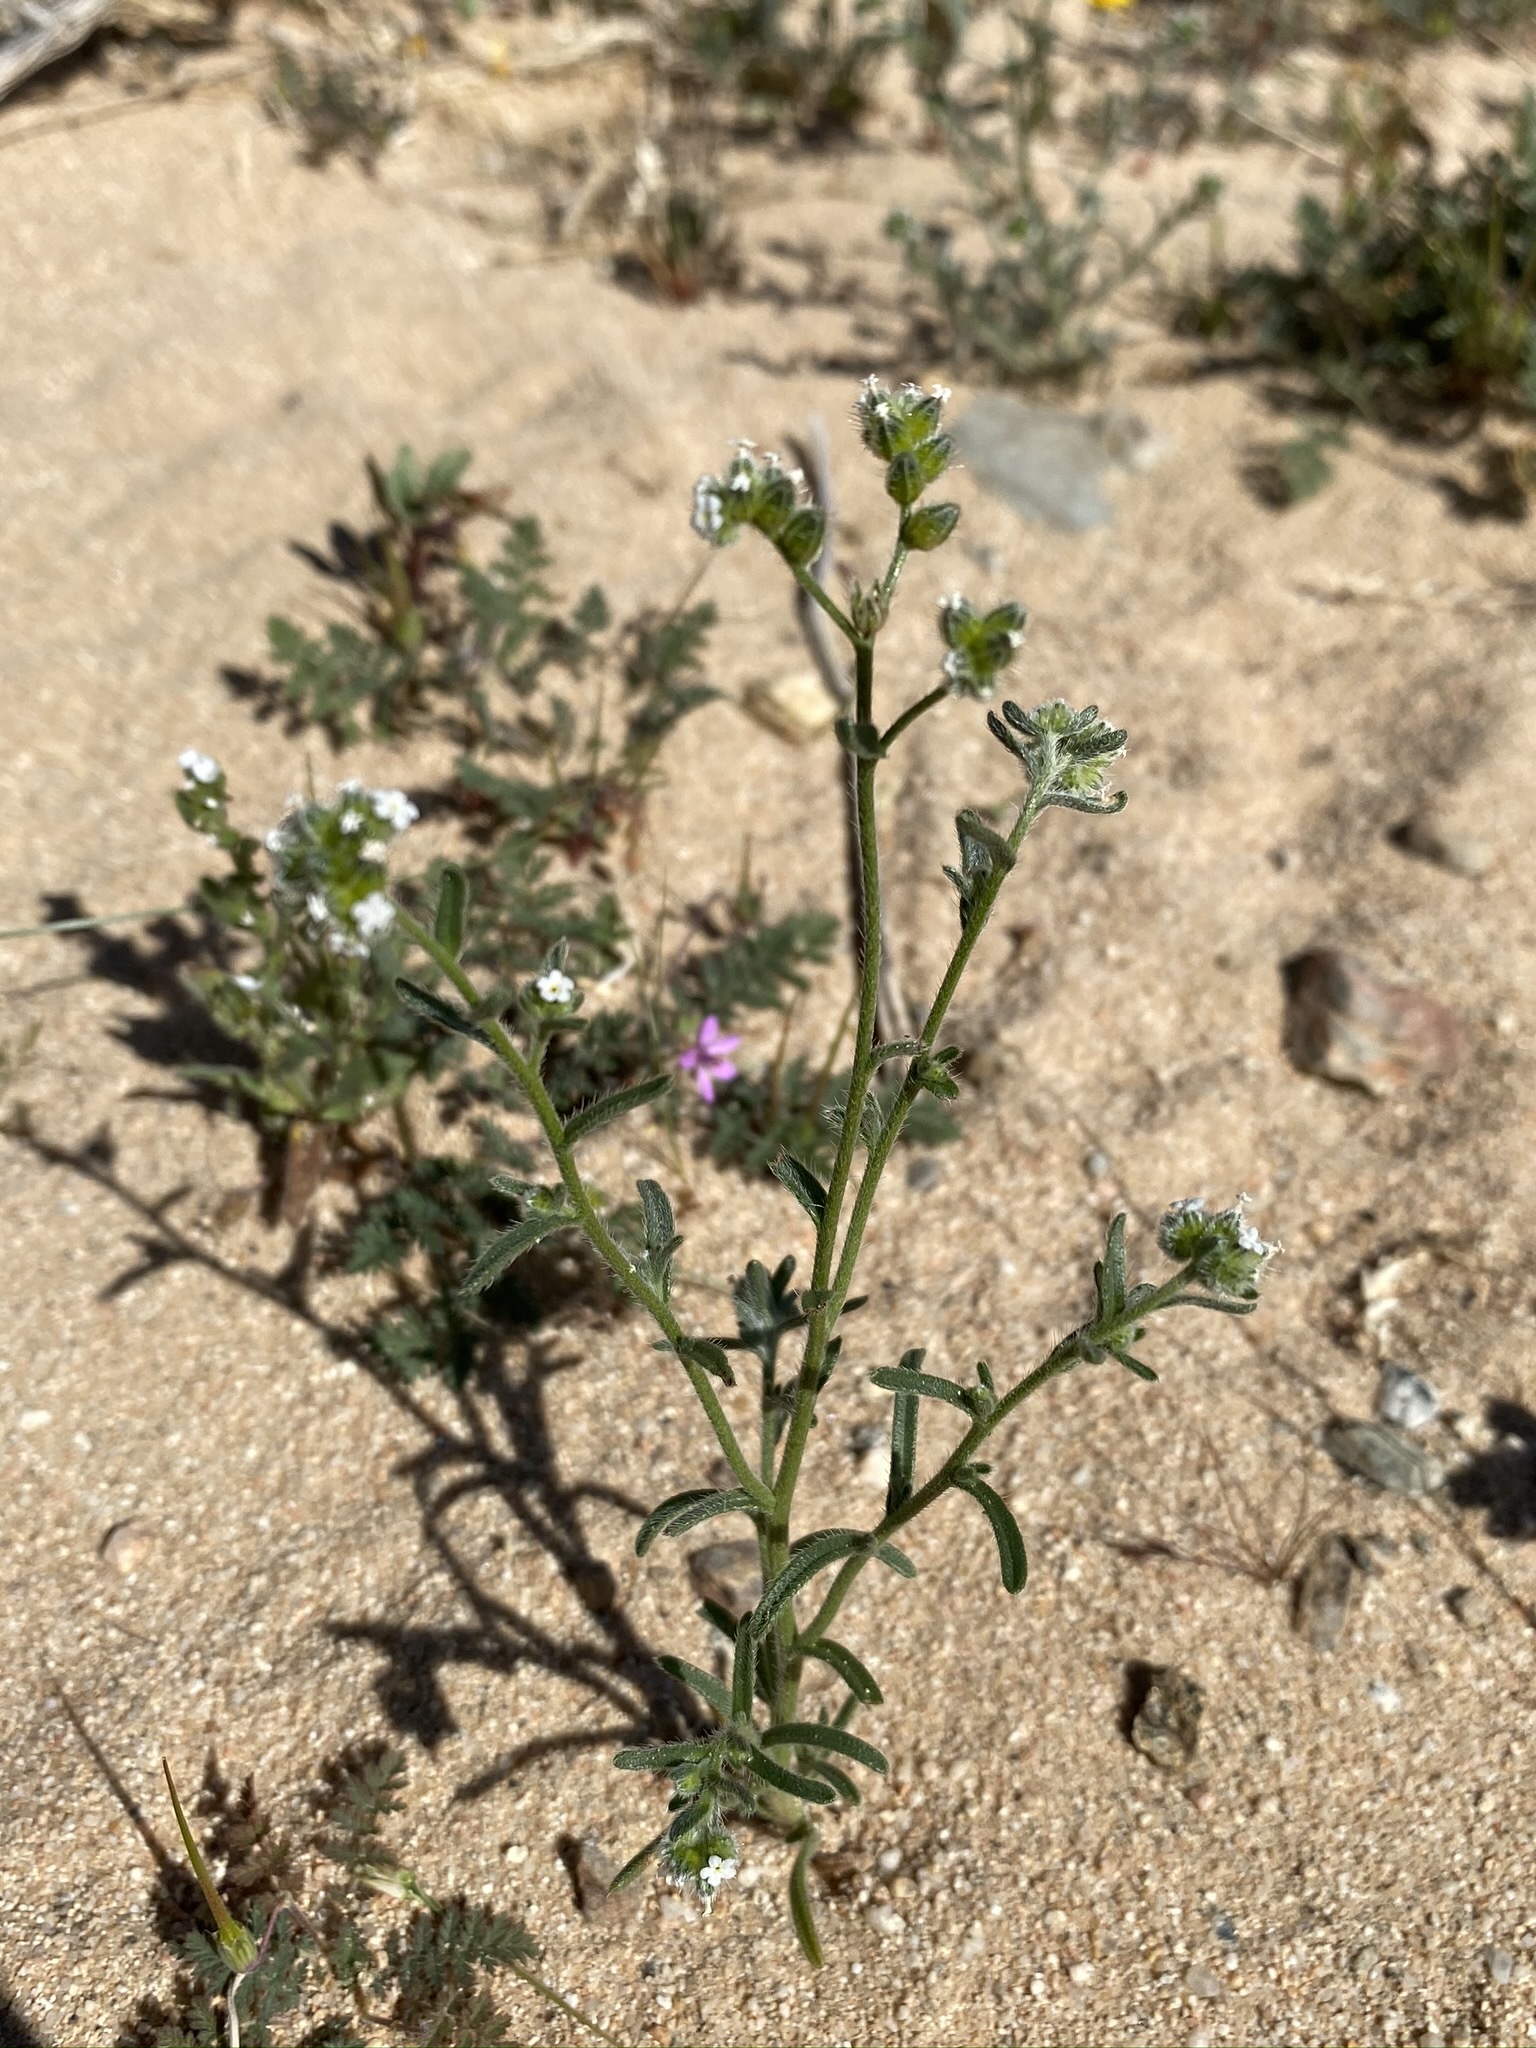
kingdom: Plantae
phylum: Tracheophyta
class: Magnoliopsida
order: Boraginales
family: Boraginaceae
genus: Cryptantha
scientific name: Cryptantha pterocarya
